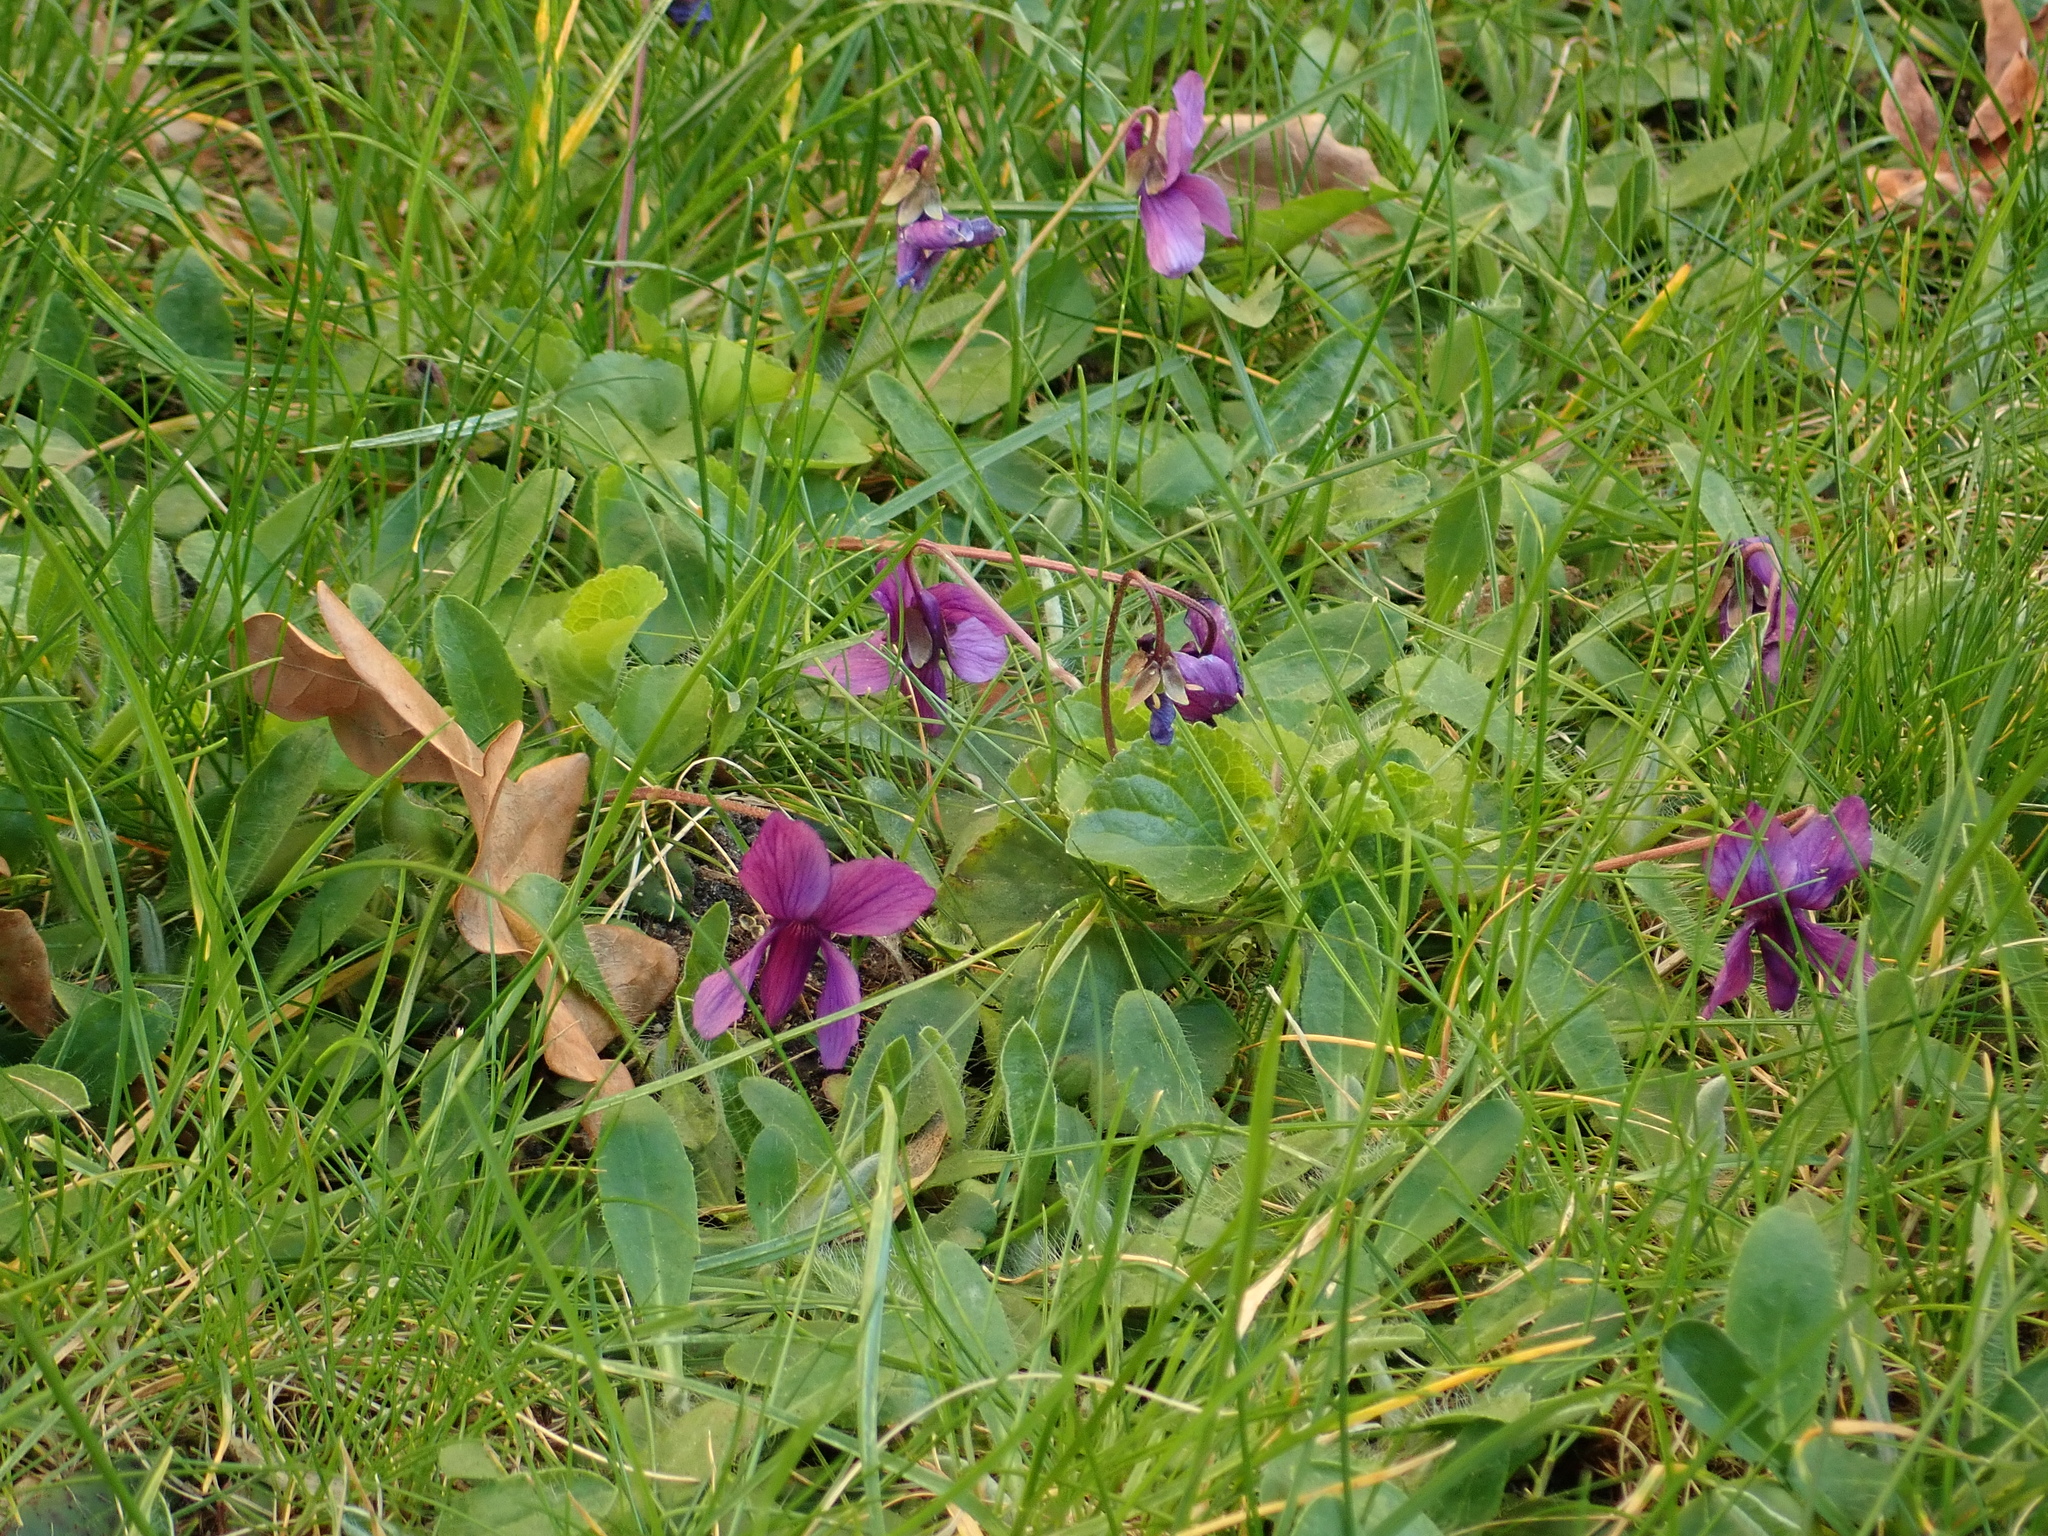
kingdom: Plantae
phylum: Tracheophyta
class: Magnoliopsida
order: Malpighiales
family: Violaceae
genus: Viola
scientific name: Viola odorata
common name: Sweet violet
